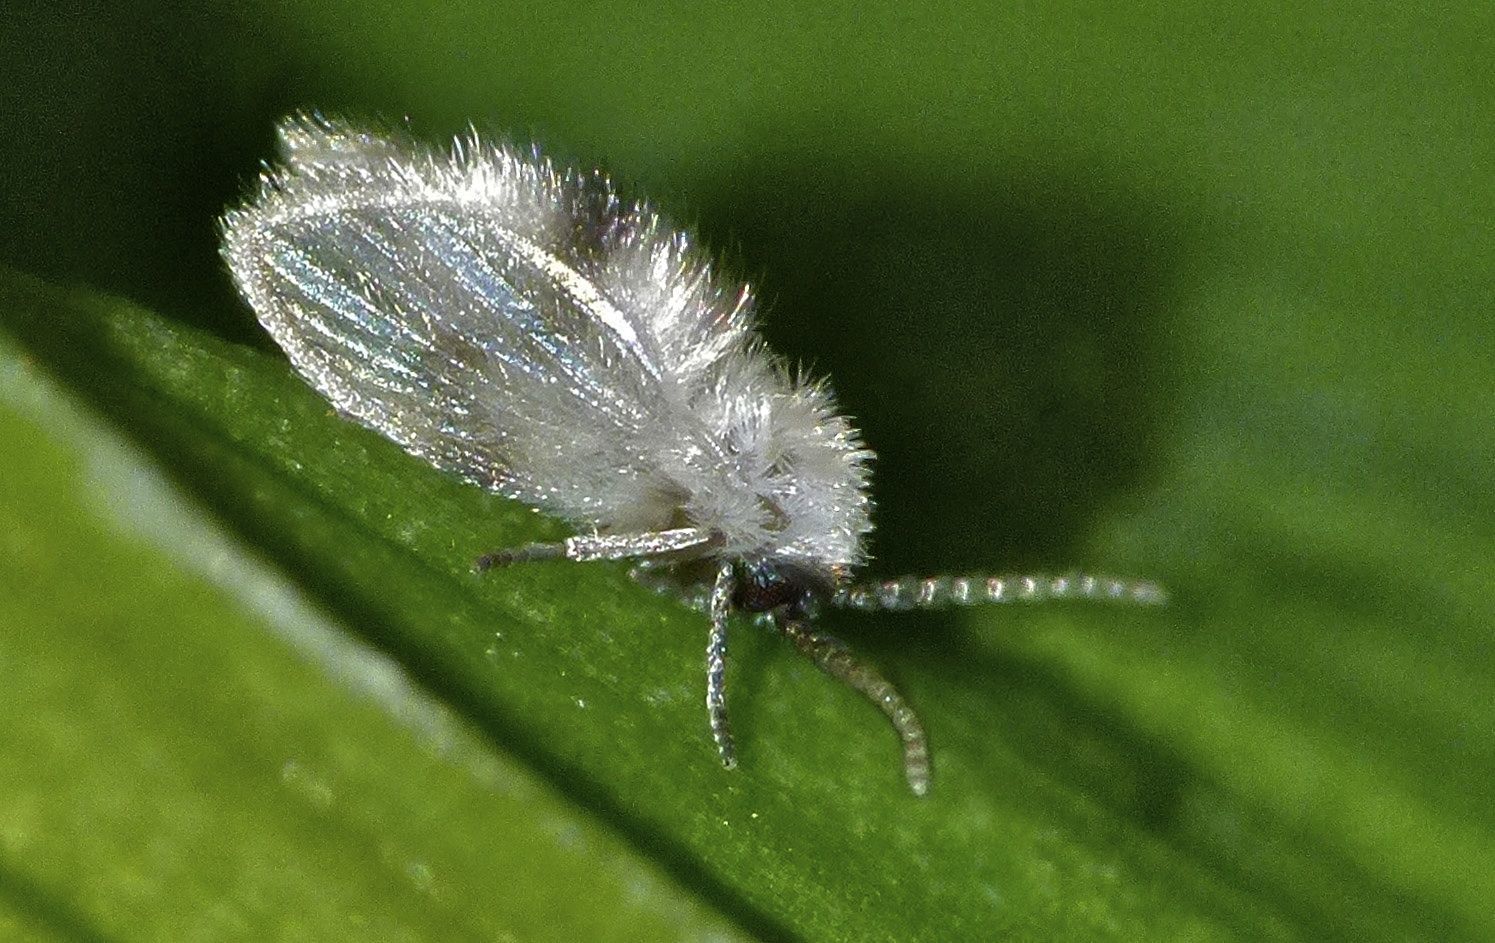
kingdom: Animalia
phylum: Arthropoda
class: Insecta
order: Diptera
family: Psychodidae
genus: Psychoda
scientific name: Psychoda sigma
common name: Moth fly
